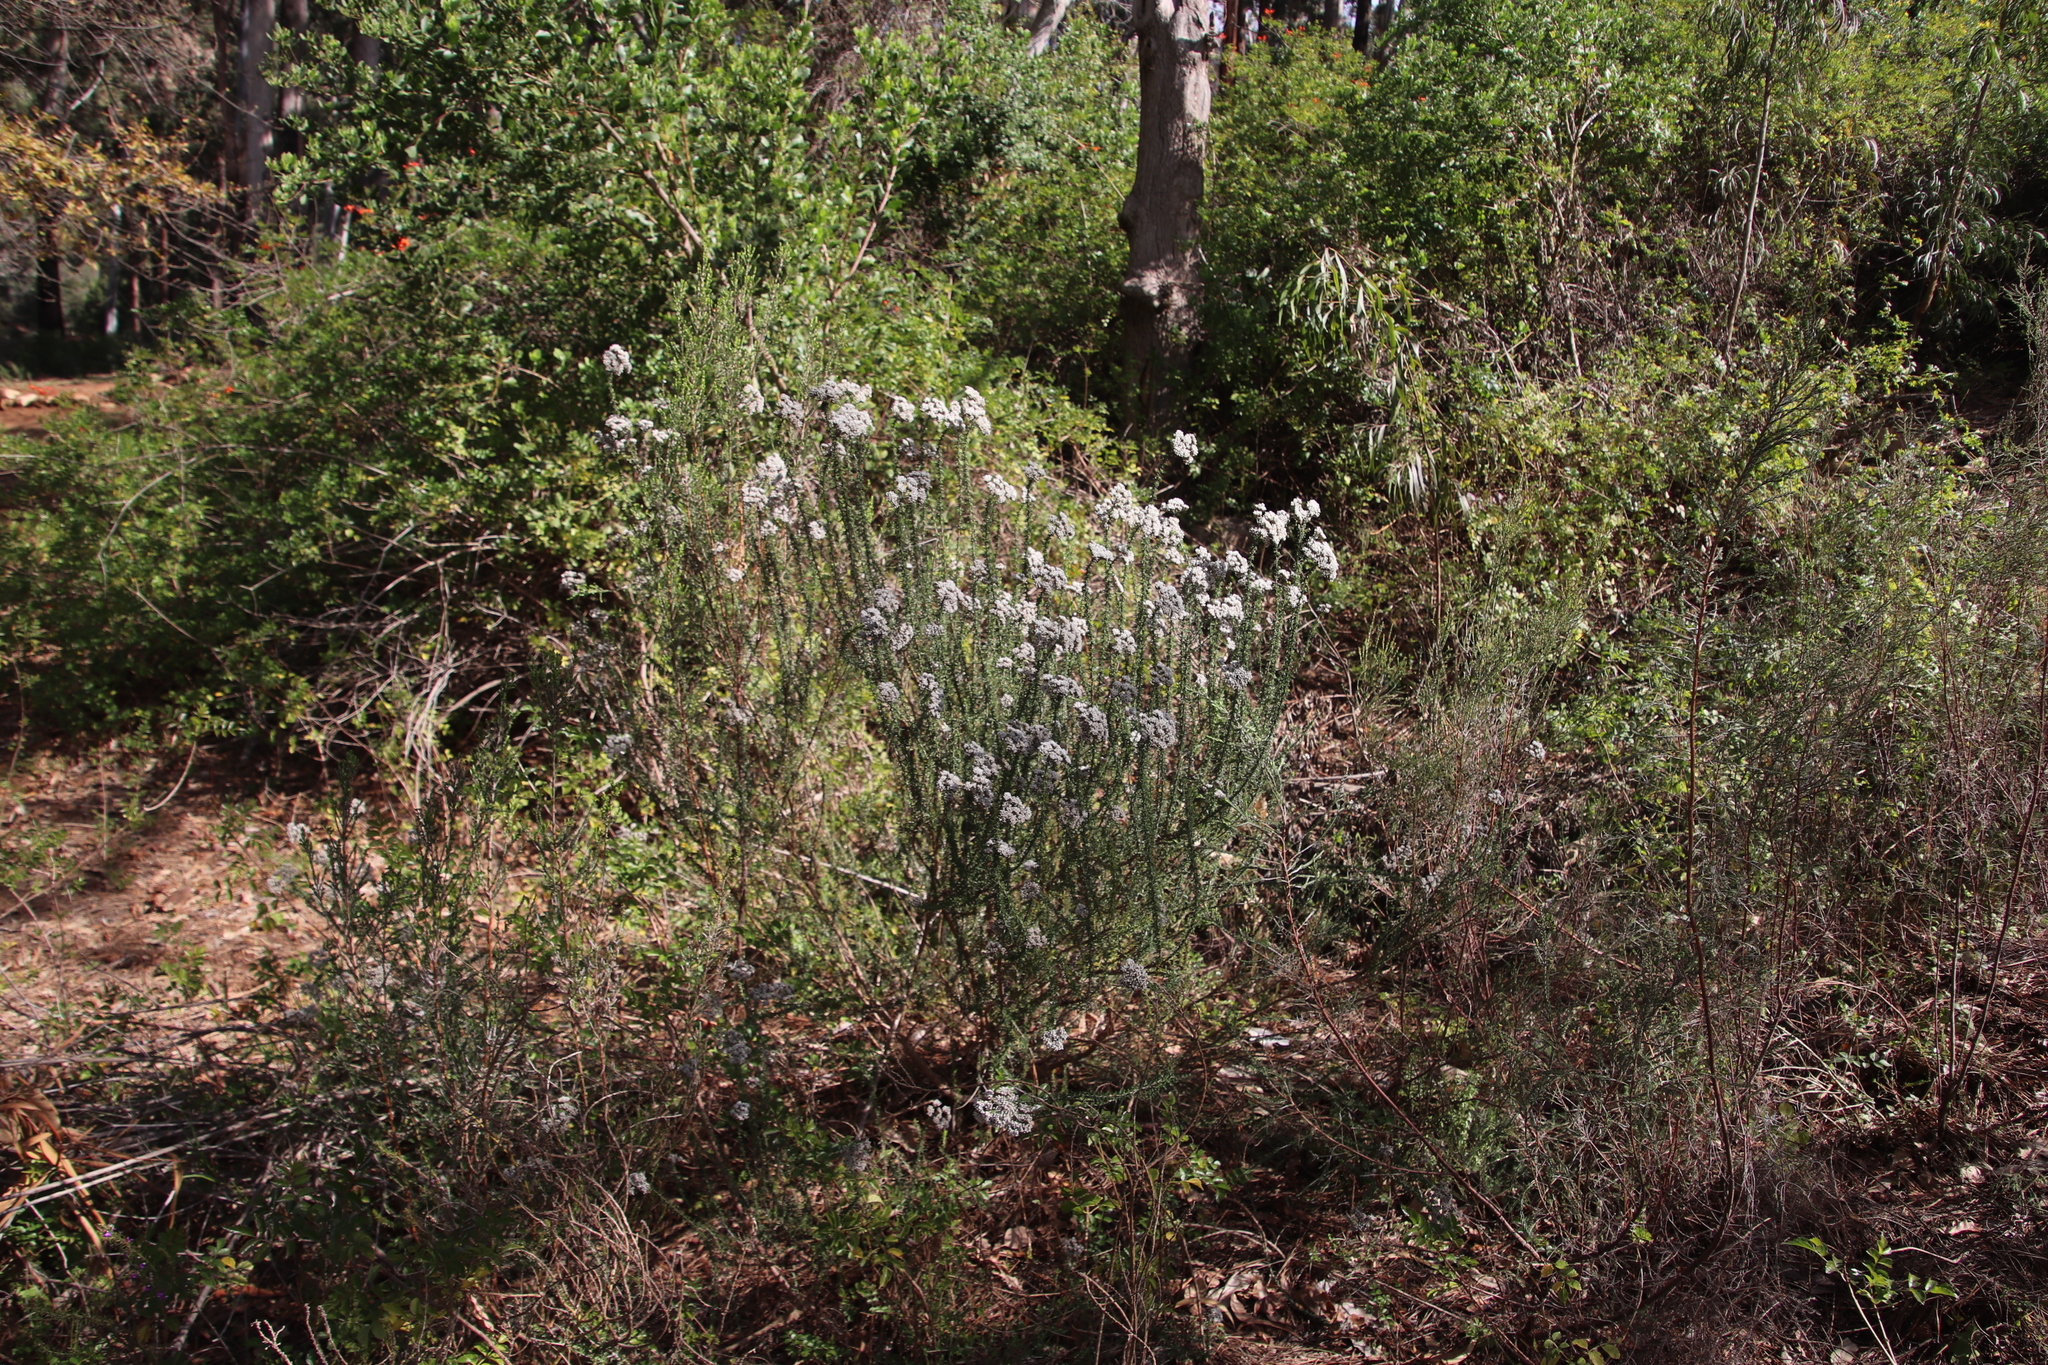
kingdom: Plantae
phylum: Tracheophyta
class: Magnoliopsida
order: Asterales
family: Asteraceae
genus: Metalasia
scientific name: Metalasia densa
